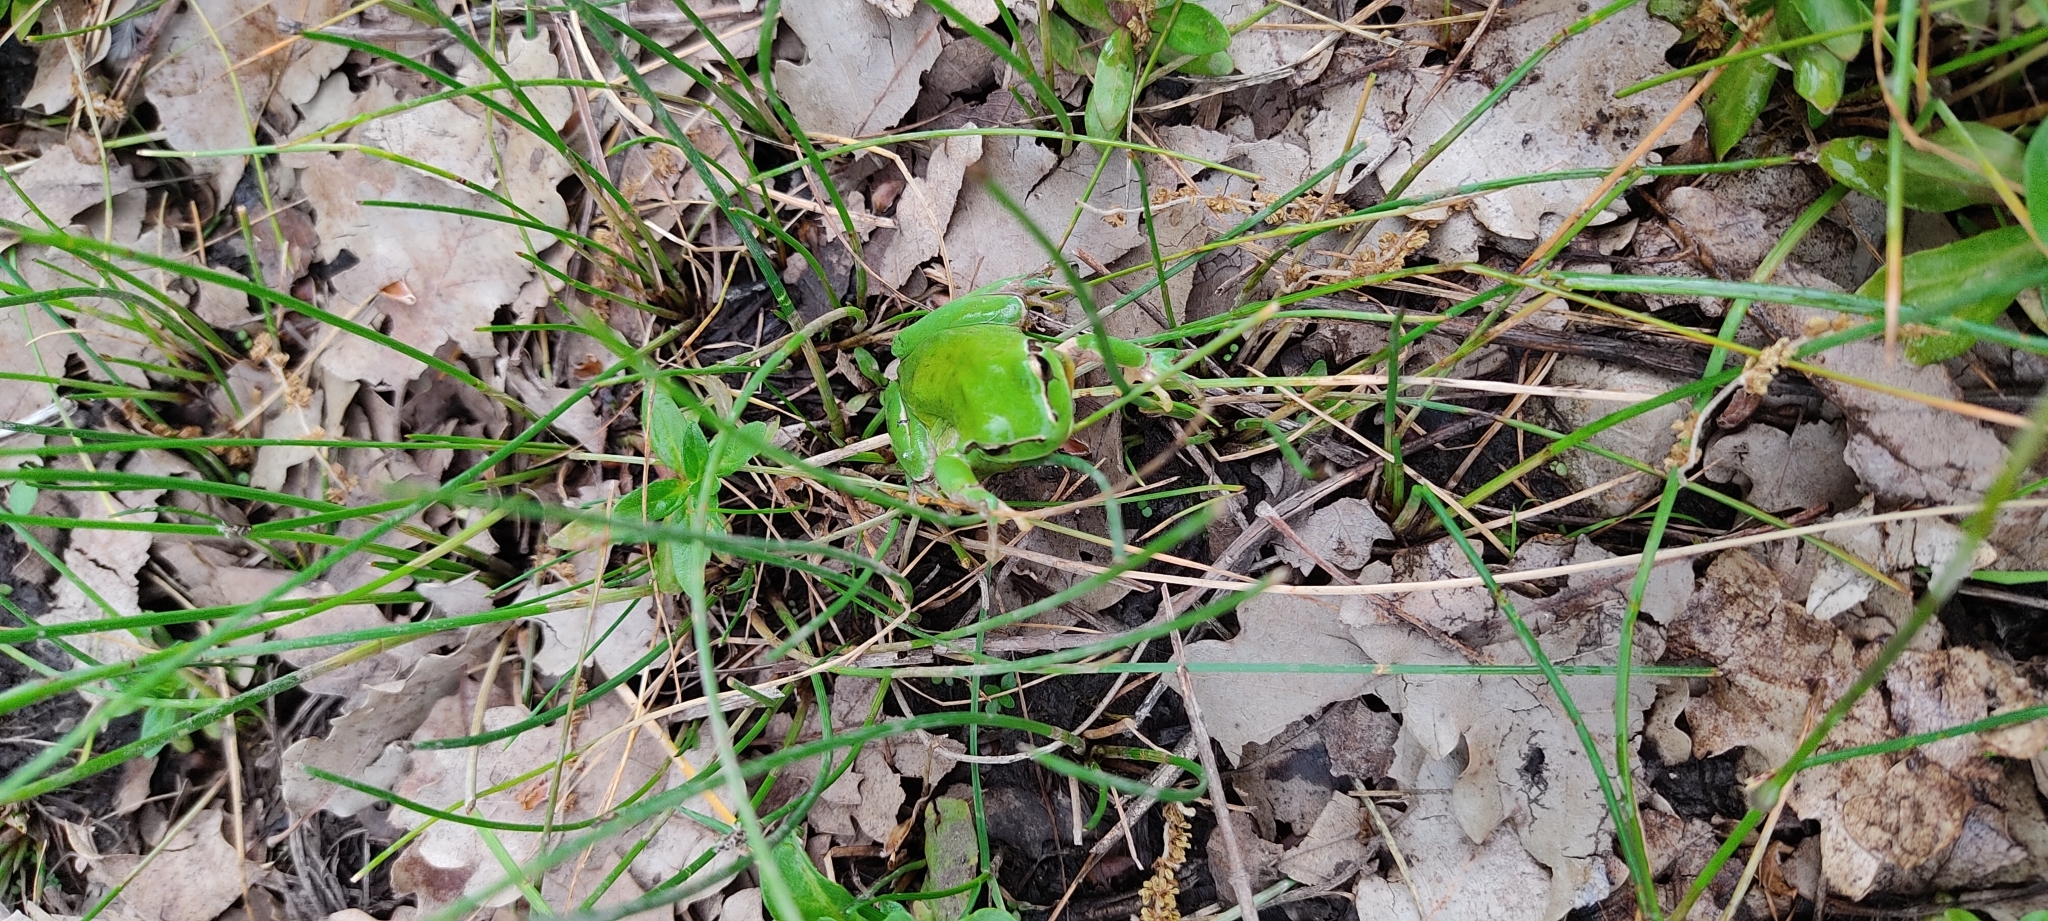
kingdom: Animalia
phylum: Chordata
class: Amphibia
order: Anura
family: Hylidae
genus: Hyla
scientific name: Hyla meridionalis
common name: Stripeless tree frog
